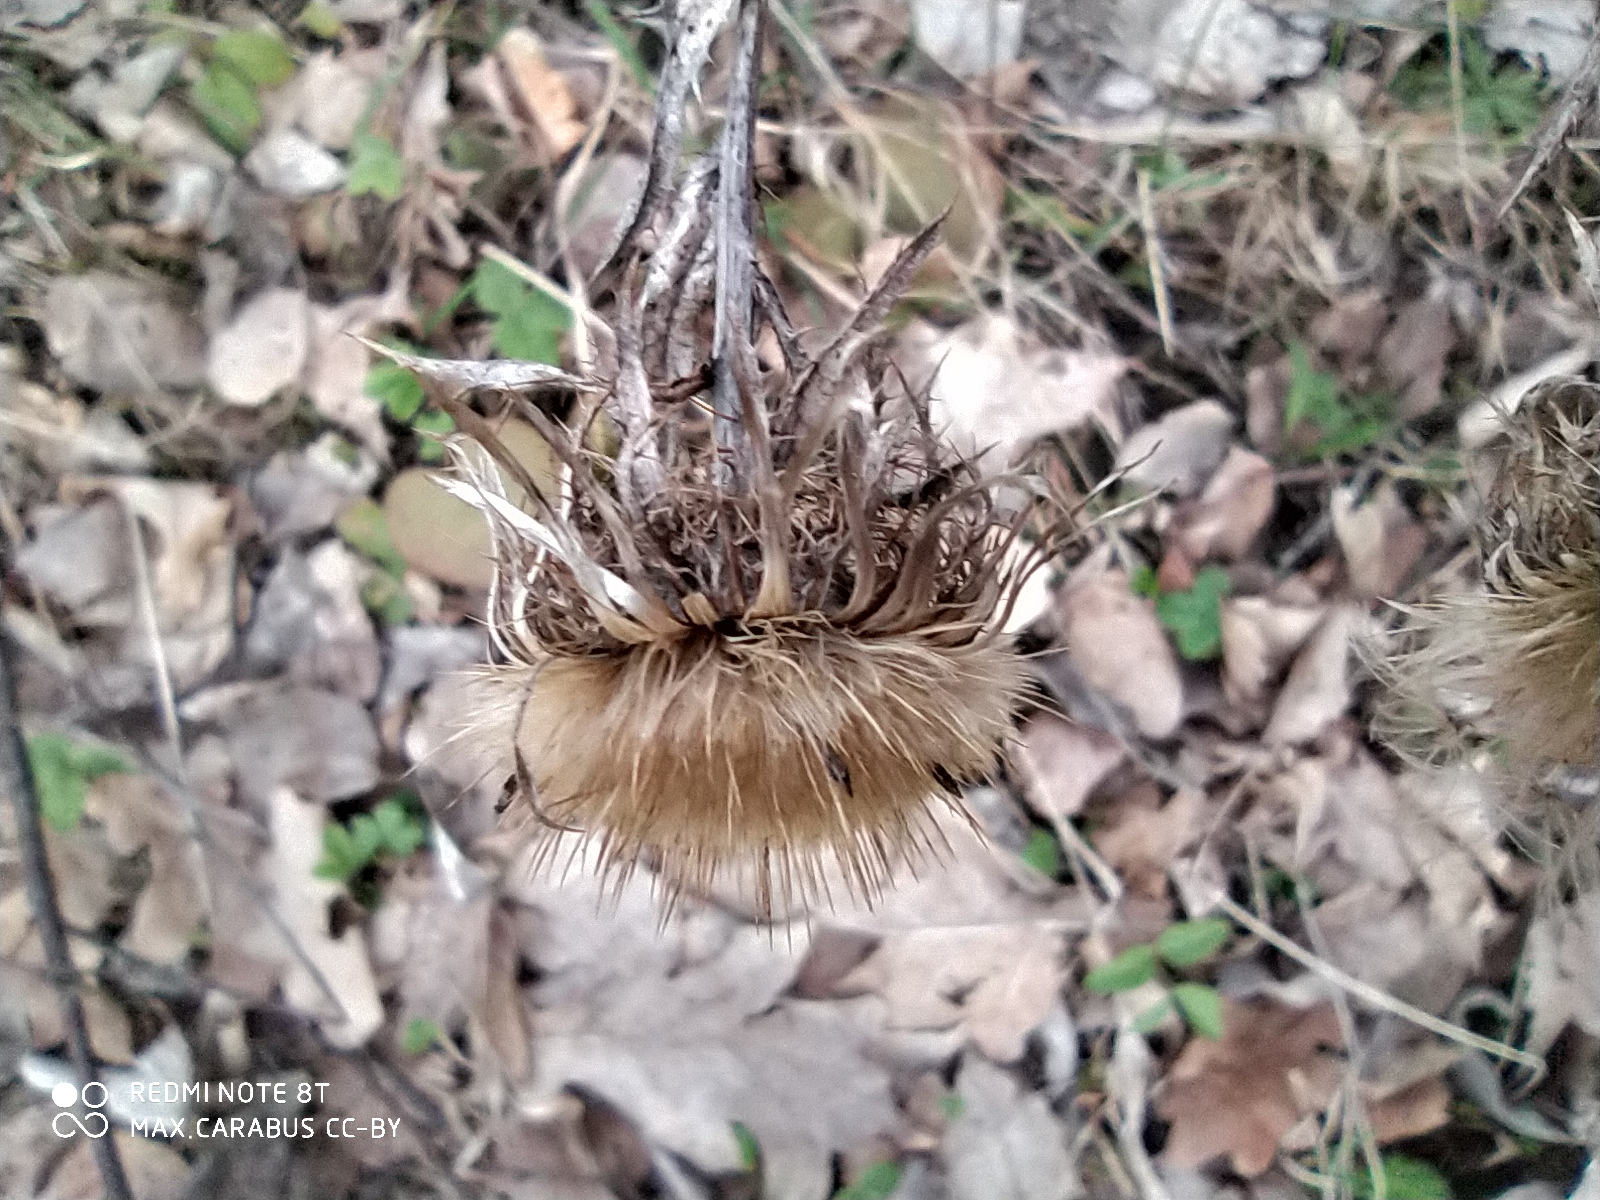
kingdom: Plantae
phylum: Tracheophyta
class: Magnoliopsida
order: Asterales
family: Asteraceae
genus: Carlina
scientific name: Carlina biebersteinii
